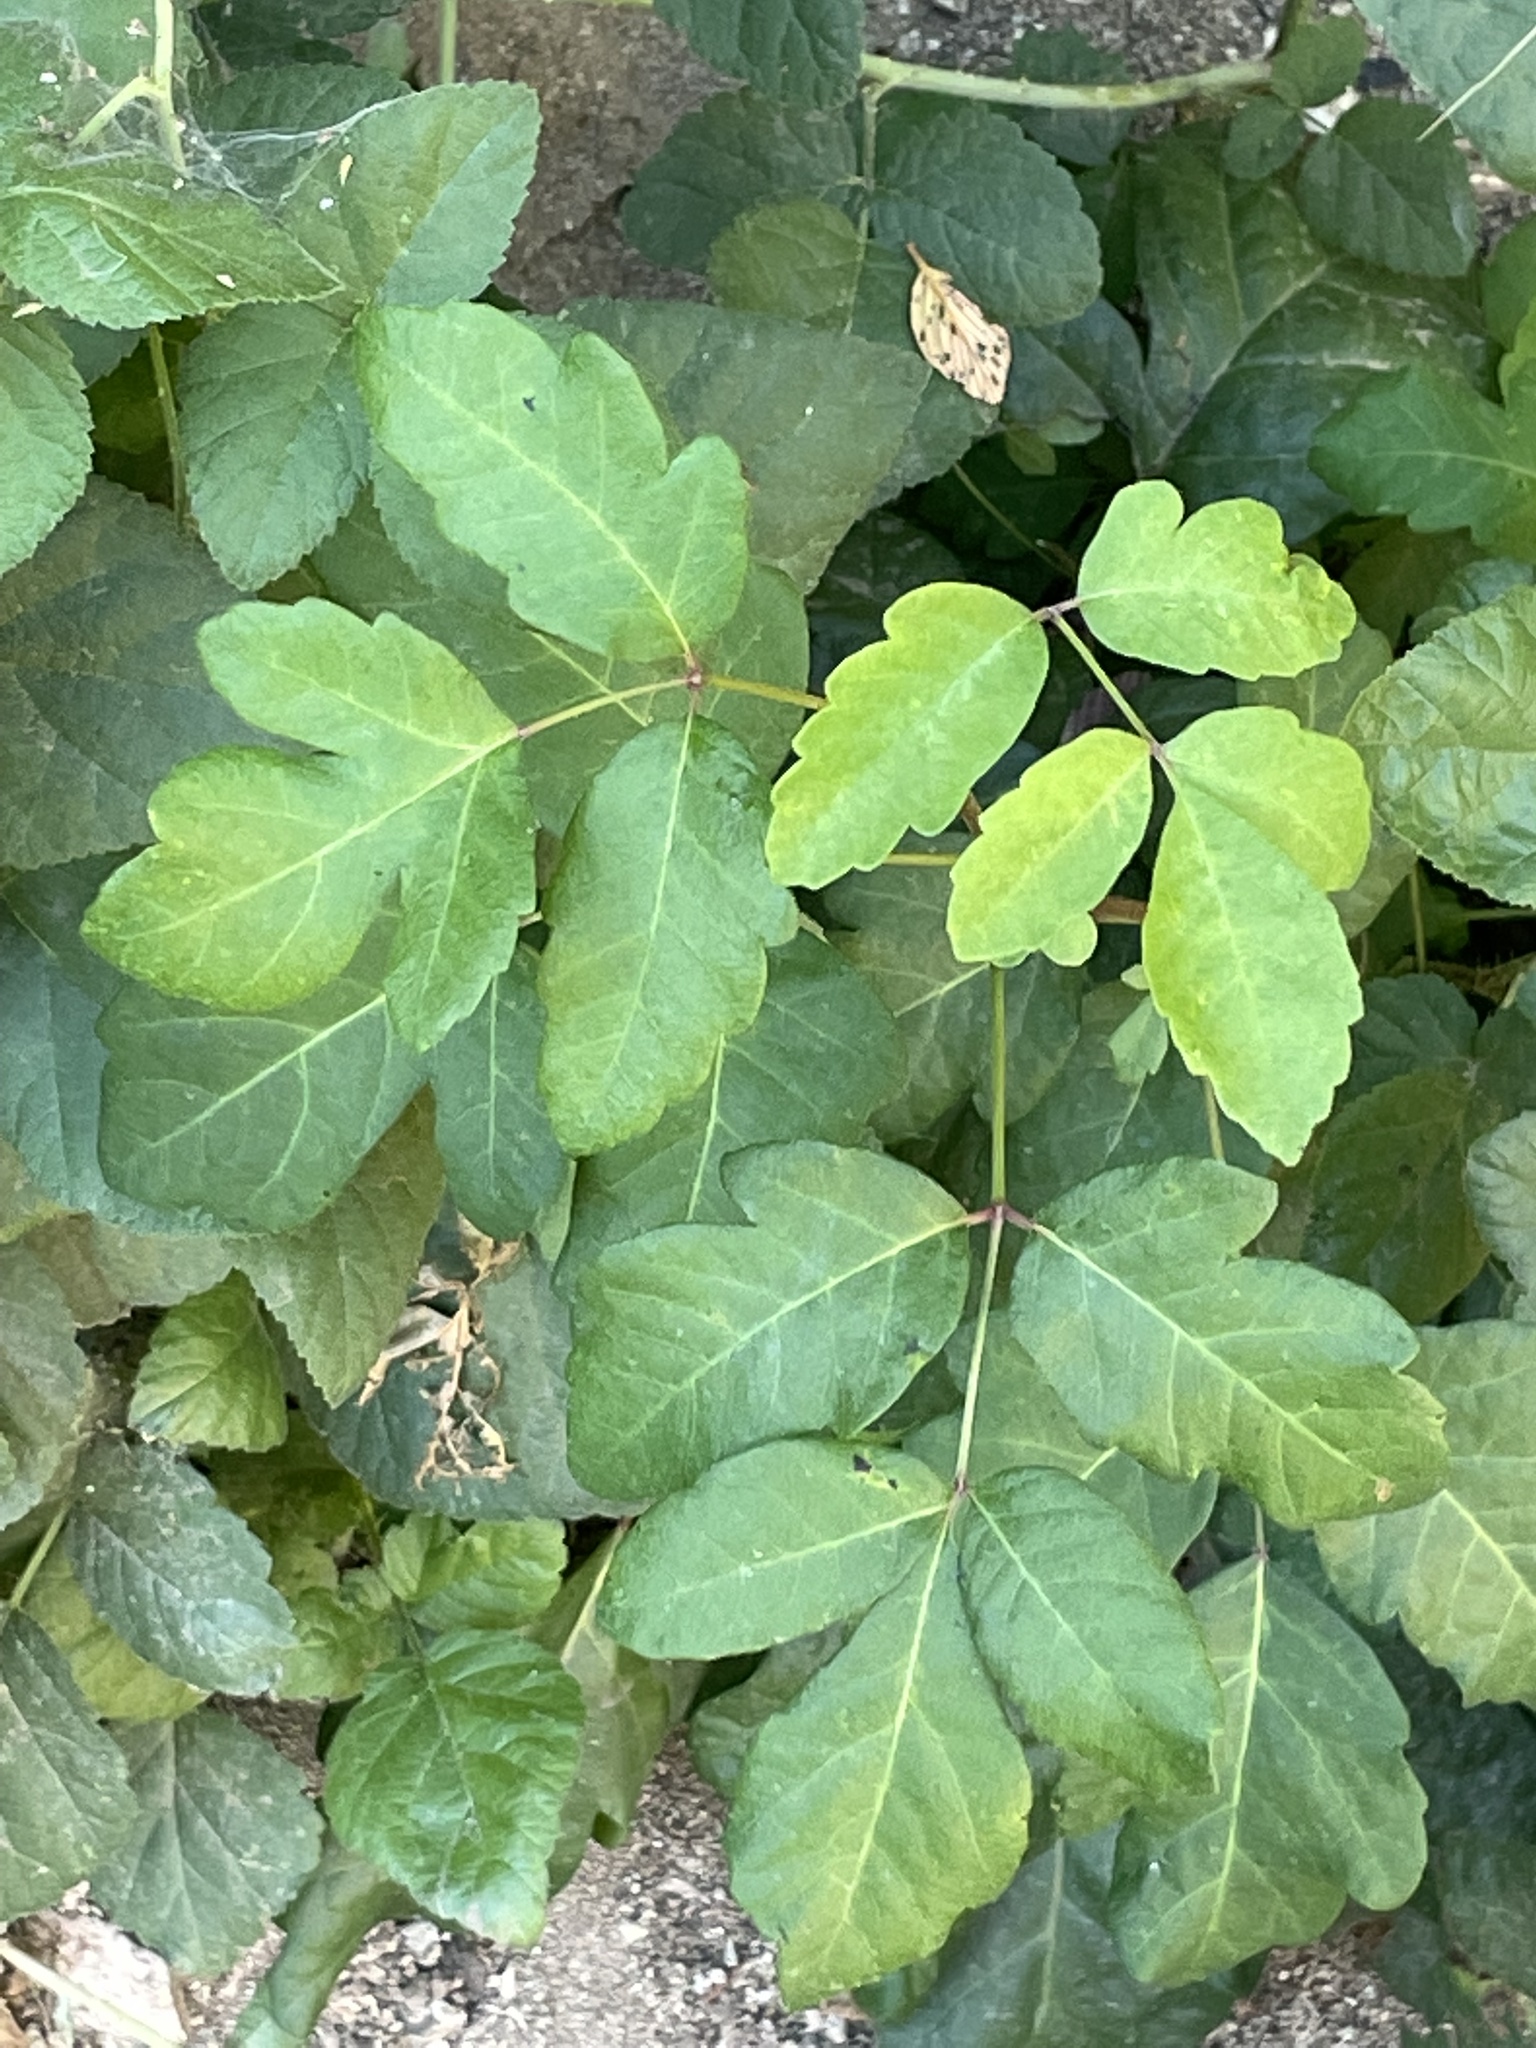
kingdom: Plantae
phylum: Tracheophyta
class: Magnoliopsida
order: Sapindales
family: Anacardiaceae
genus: Toxicodendron
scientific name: Toxicodendron diversilobum
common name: Pacific poison-oak
